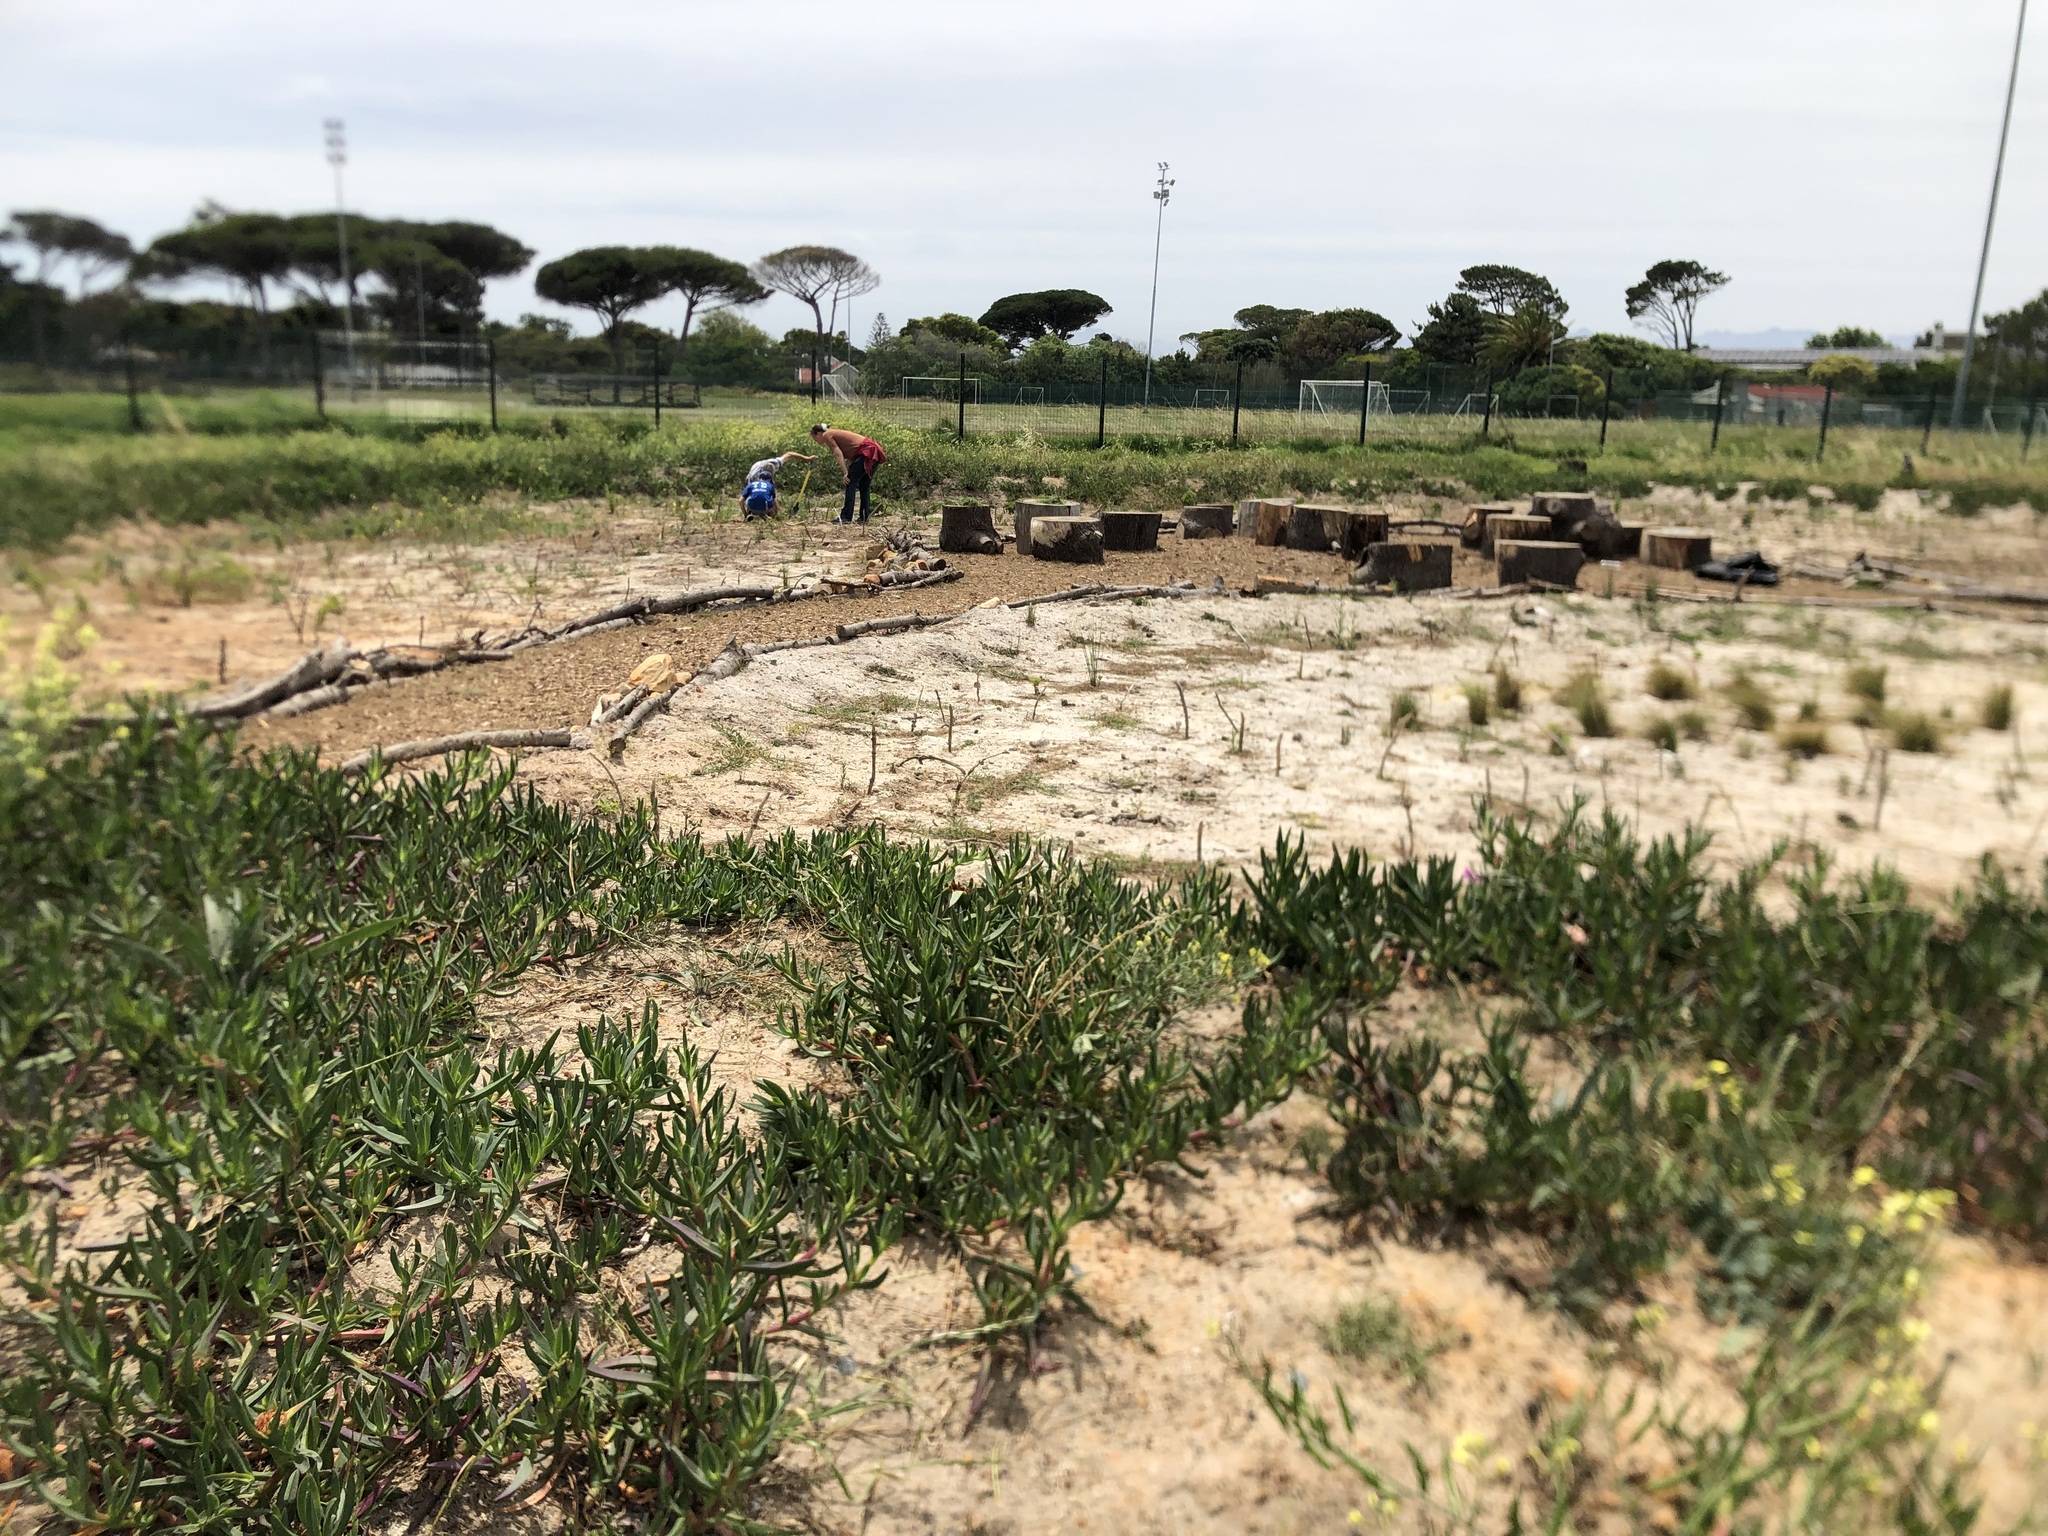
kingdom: Plantae
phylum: Tracheophyta
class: Magnoliopsida
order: Caryophyllales
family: Aizoaceae
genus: Carpobrotus
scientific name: Carpobrotus edulis
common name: Hottentot-fig
